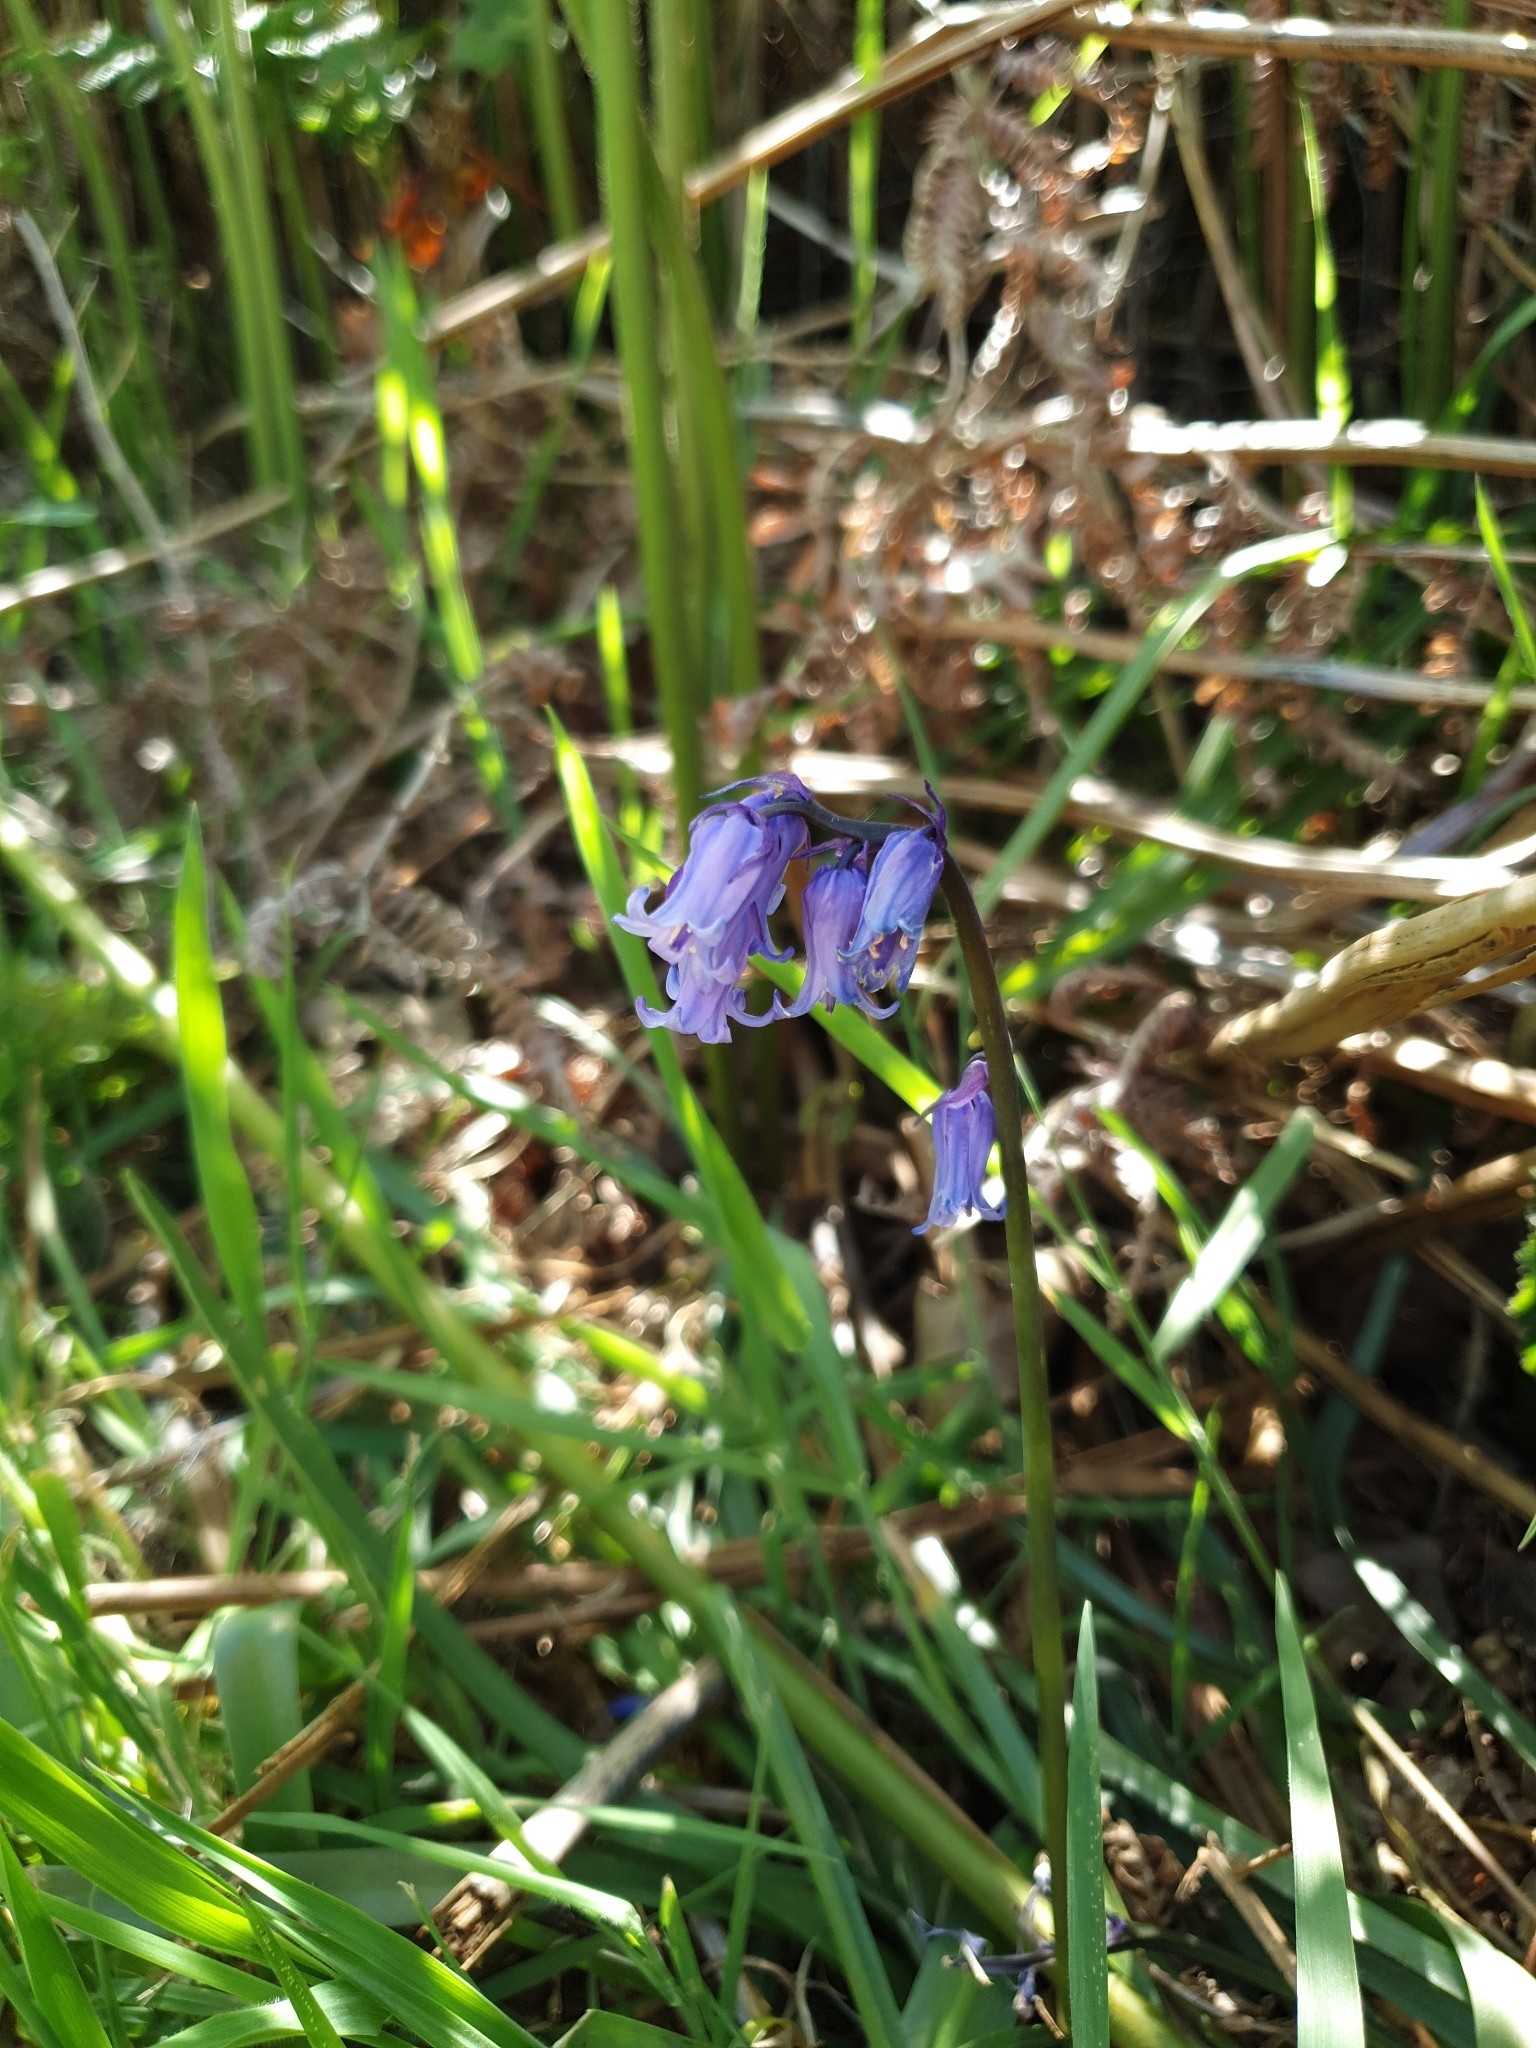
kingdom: Plantae
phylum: Tracheophyta
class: Liliopsida
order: Asparagales
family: Asparagaceae
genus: Hyacinthoides
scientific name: Hyacinthoides non-scripta
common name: Bluebell
